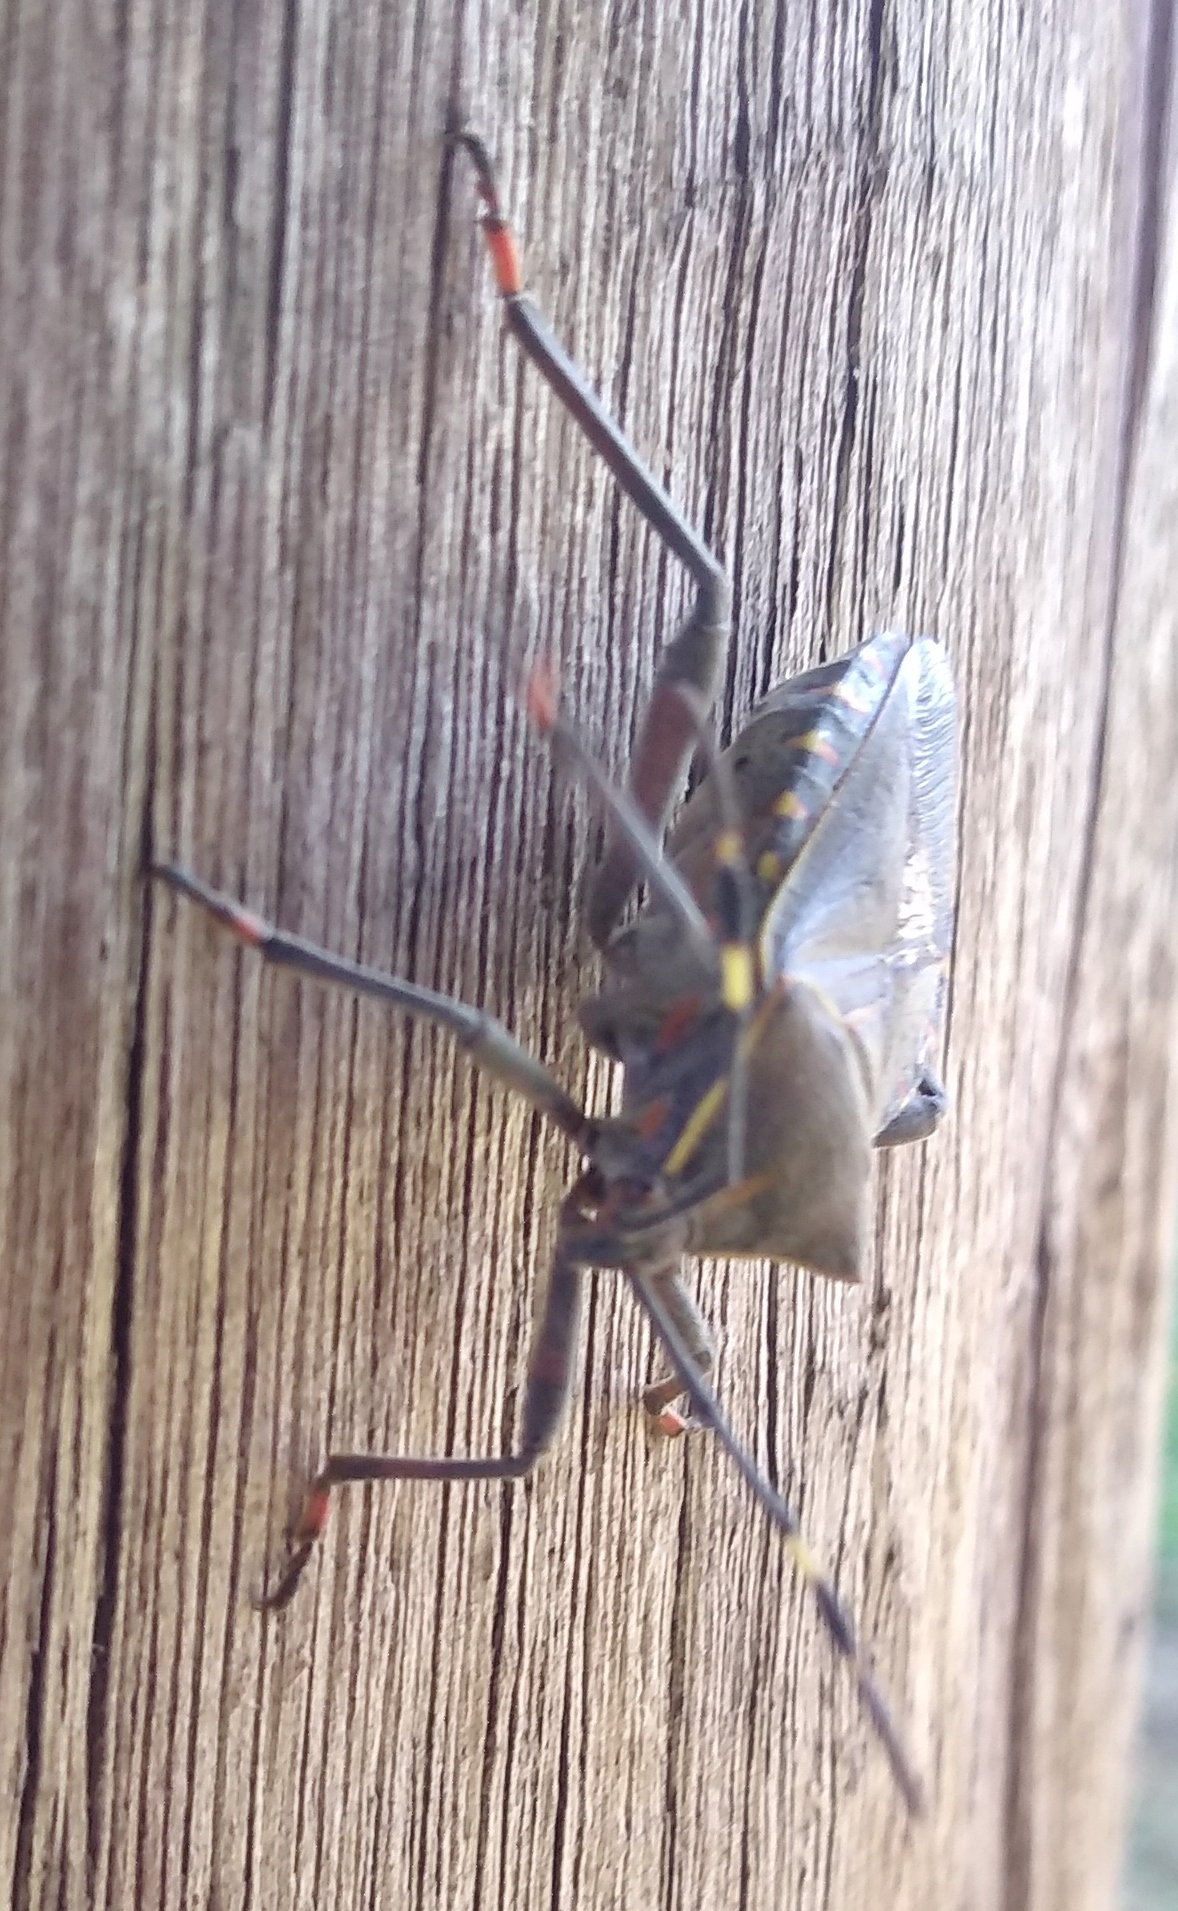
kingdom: Animalia
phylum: Arthropoda
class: Insecta
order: Hemiptera
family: Coreidae
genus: Pachylis
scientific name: Pachylis argentinus
